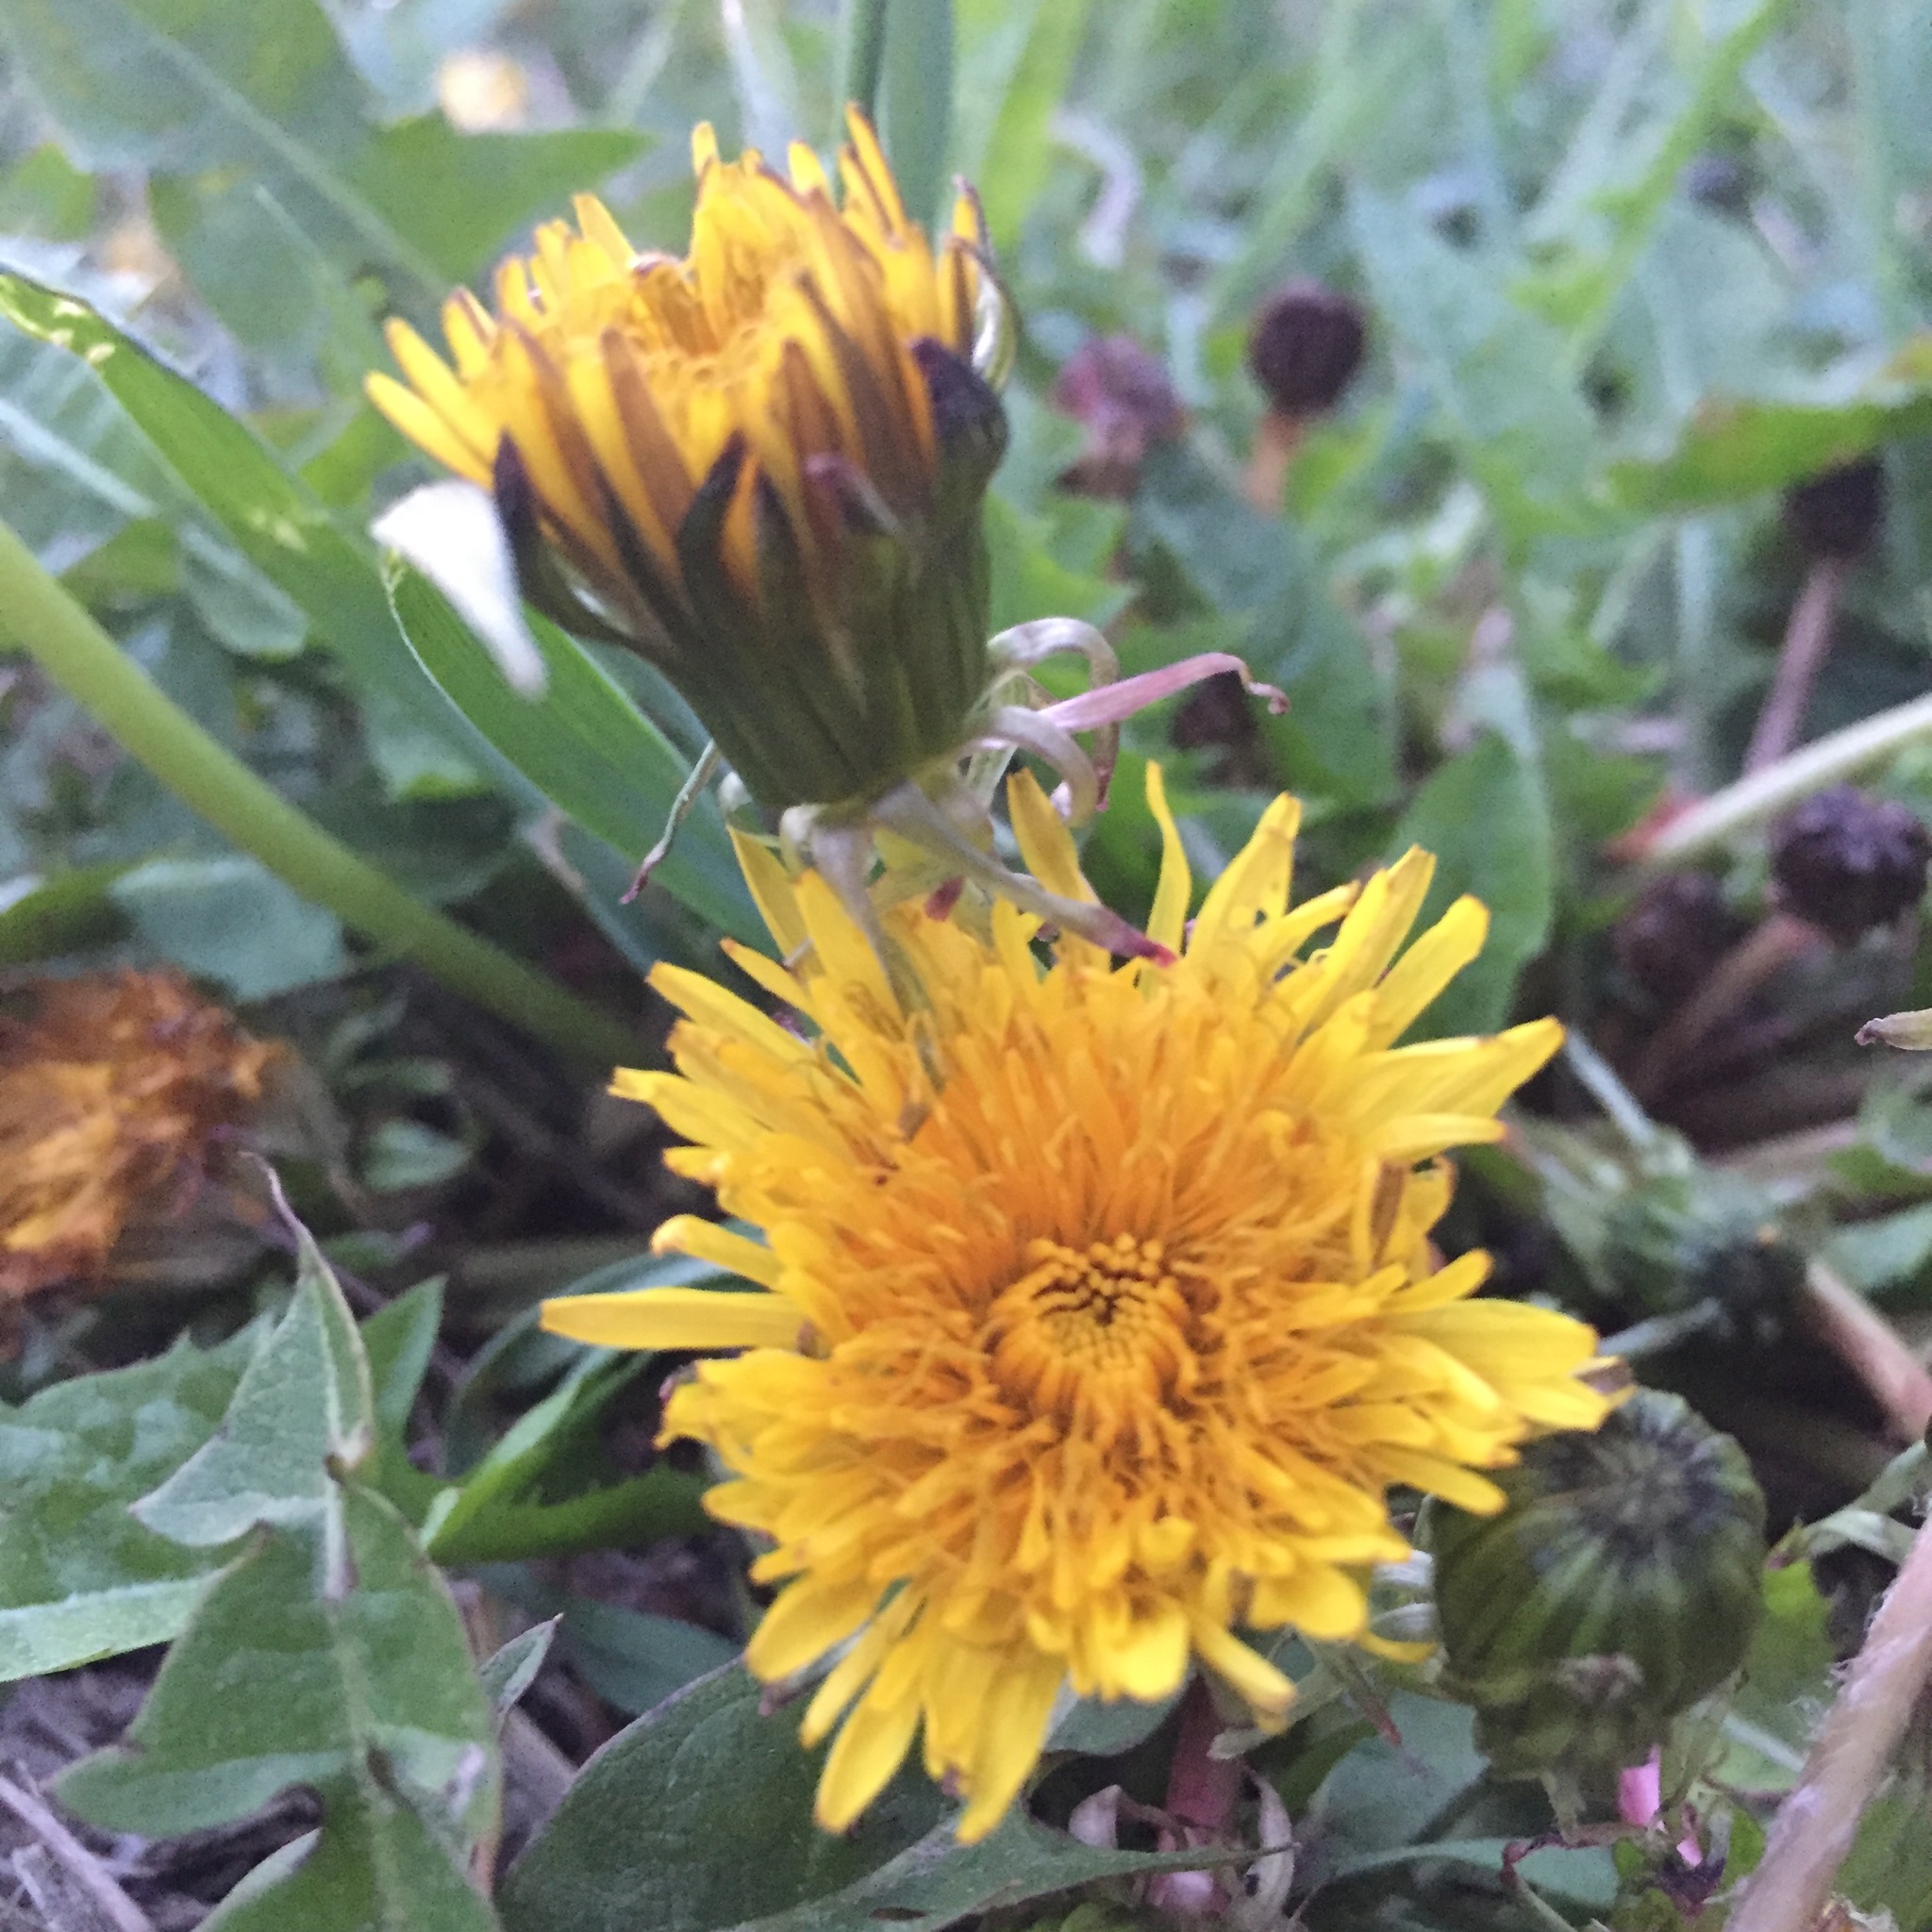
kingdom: Plantae
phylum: Tracheophyta
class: Magnoliopsida
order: Asterales
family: Asteraceae
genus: Taraxacum
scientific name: Taraxacum officinale
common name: Common dandelion
